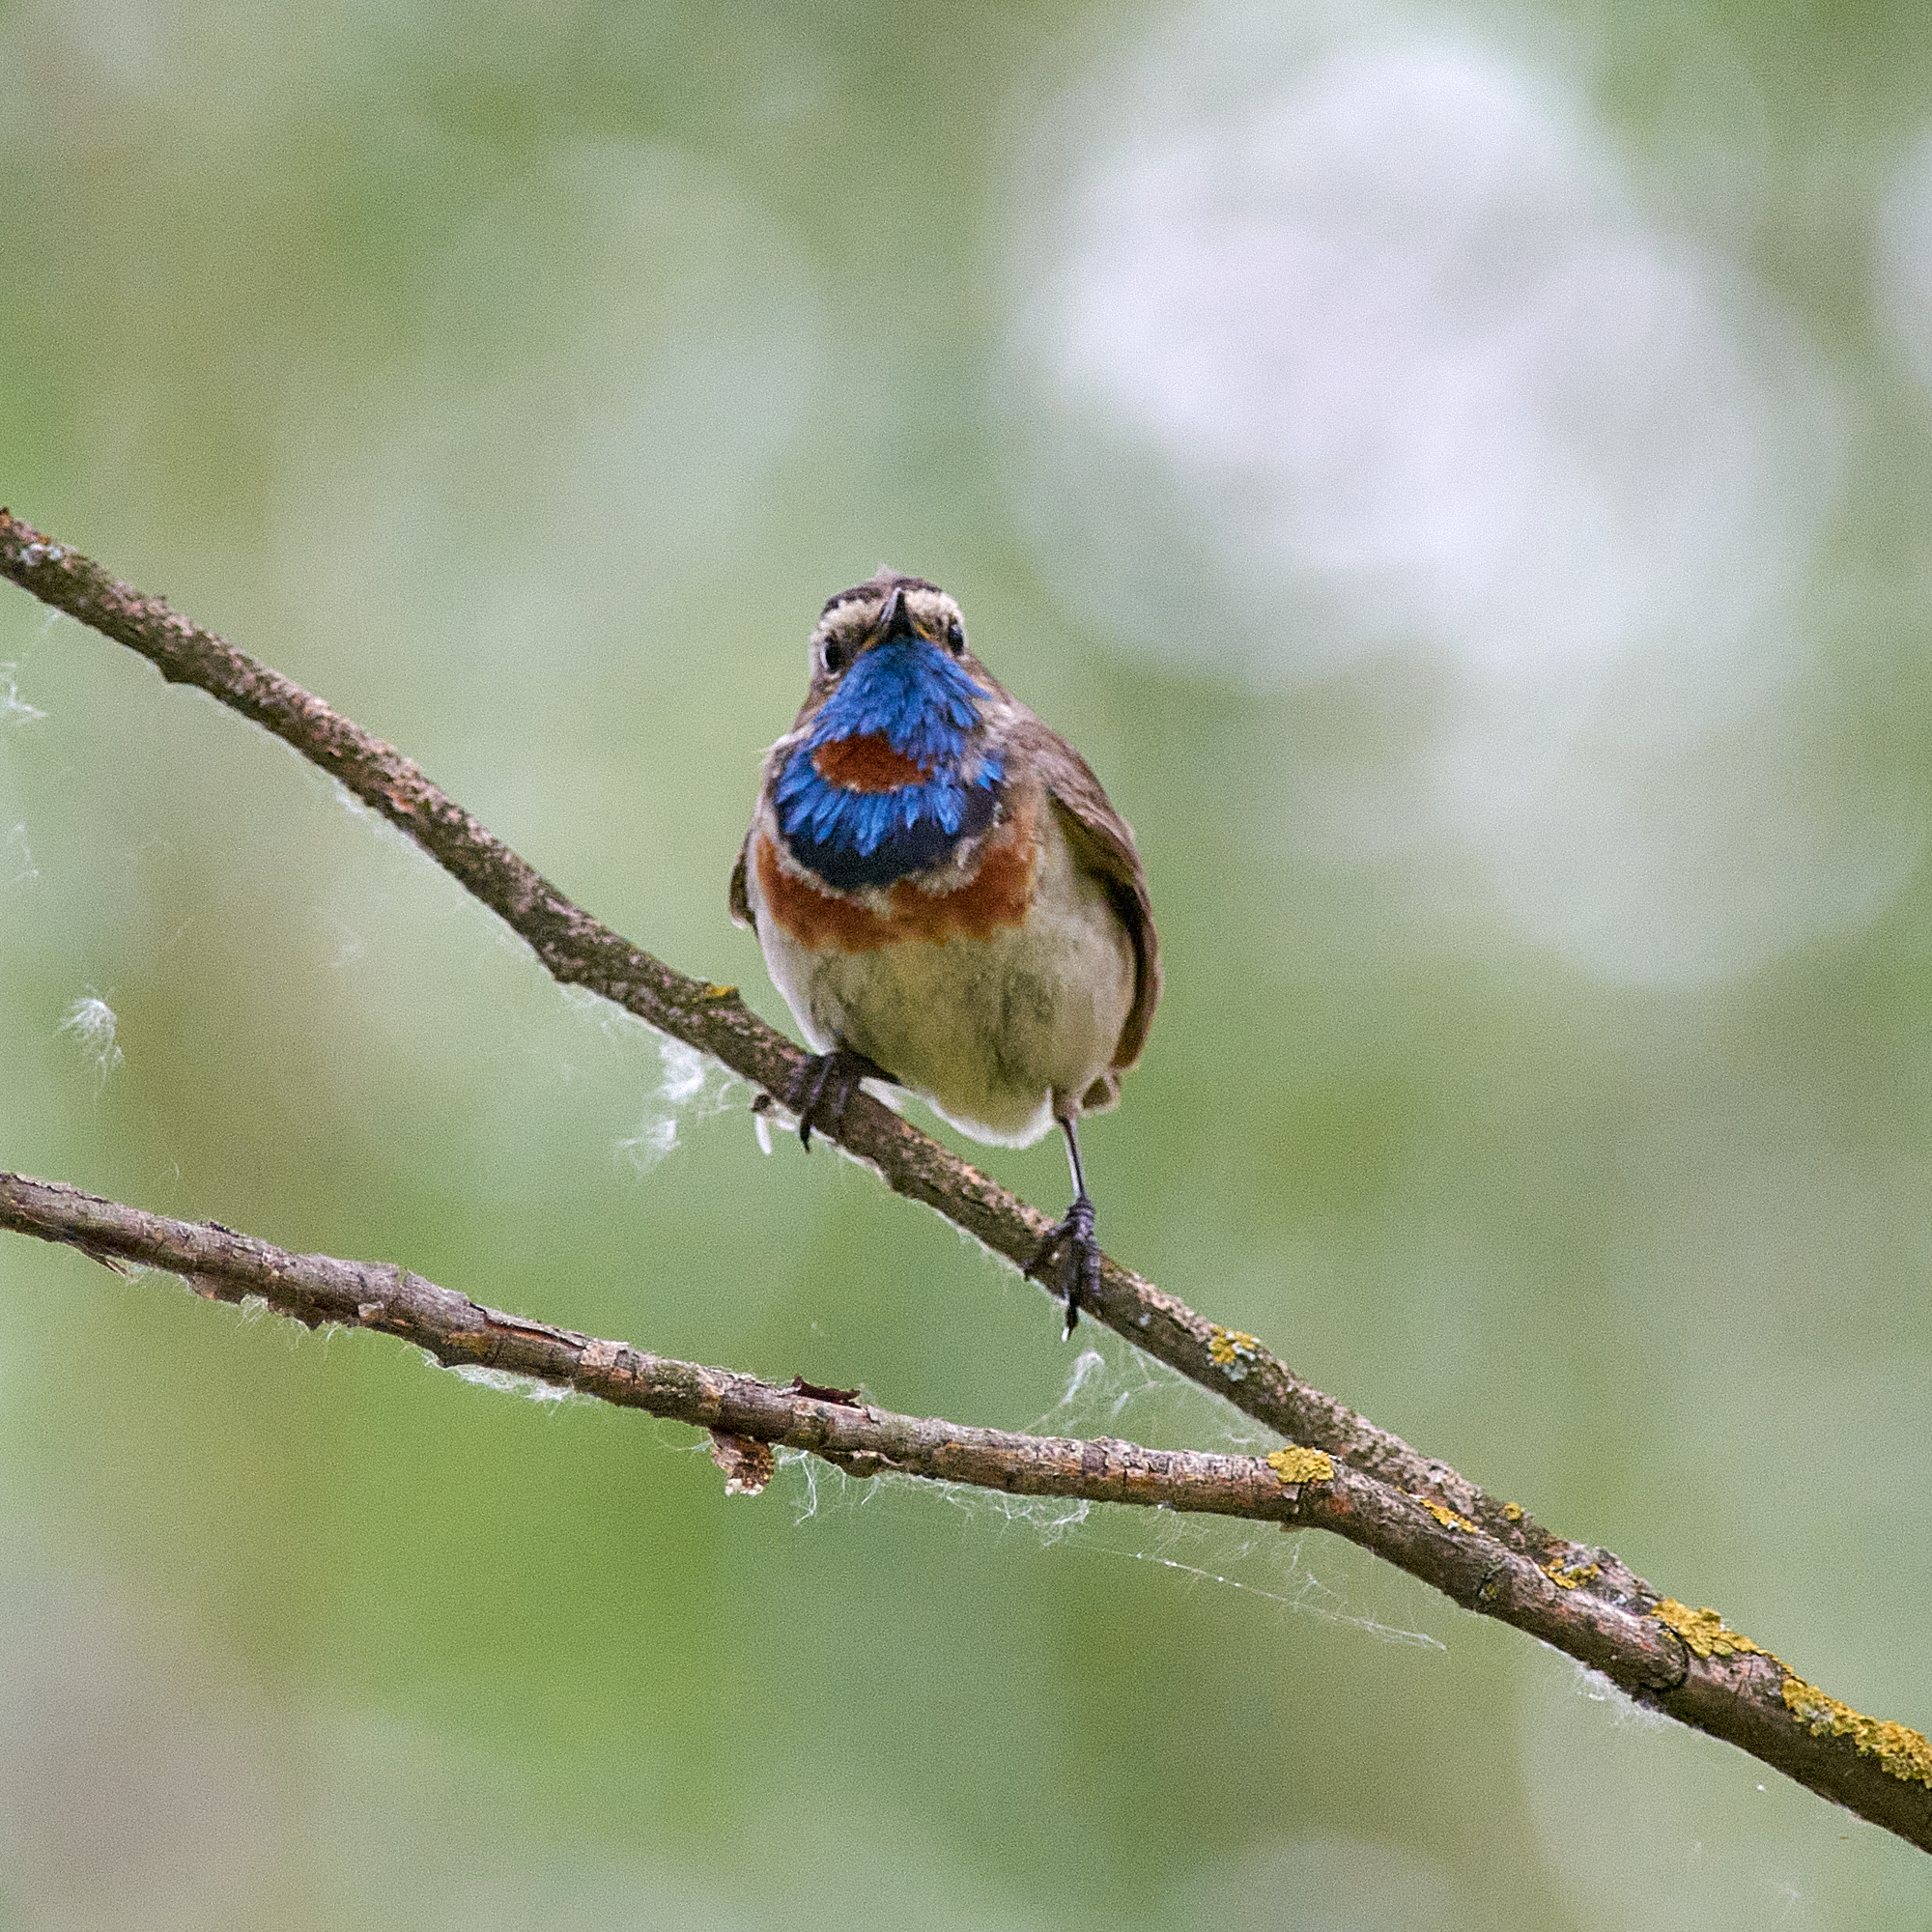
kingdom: Animalia
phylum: Chordata
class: Aves
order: Passeriformes
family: Muscicapidae
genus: Luscinia
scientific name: Luscinia svecica
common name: Bluethroat
